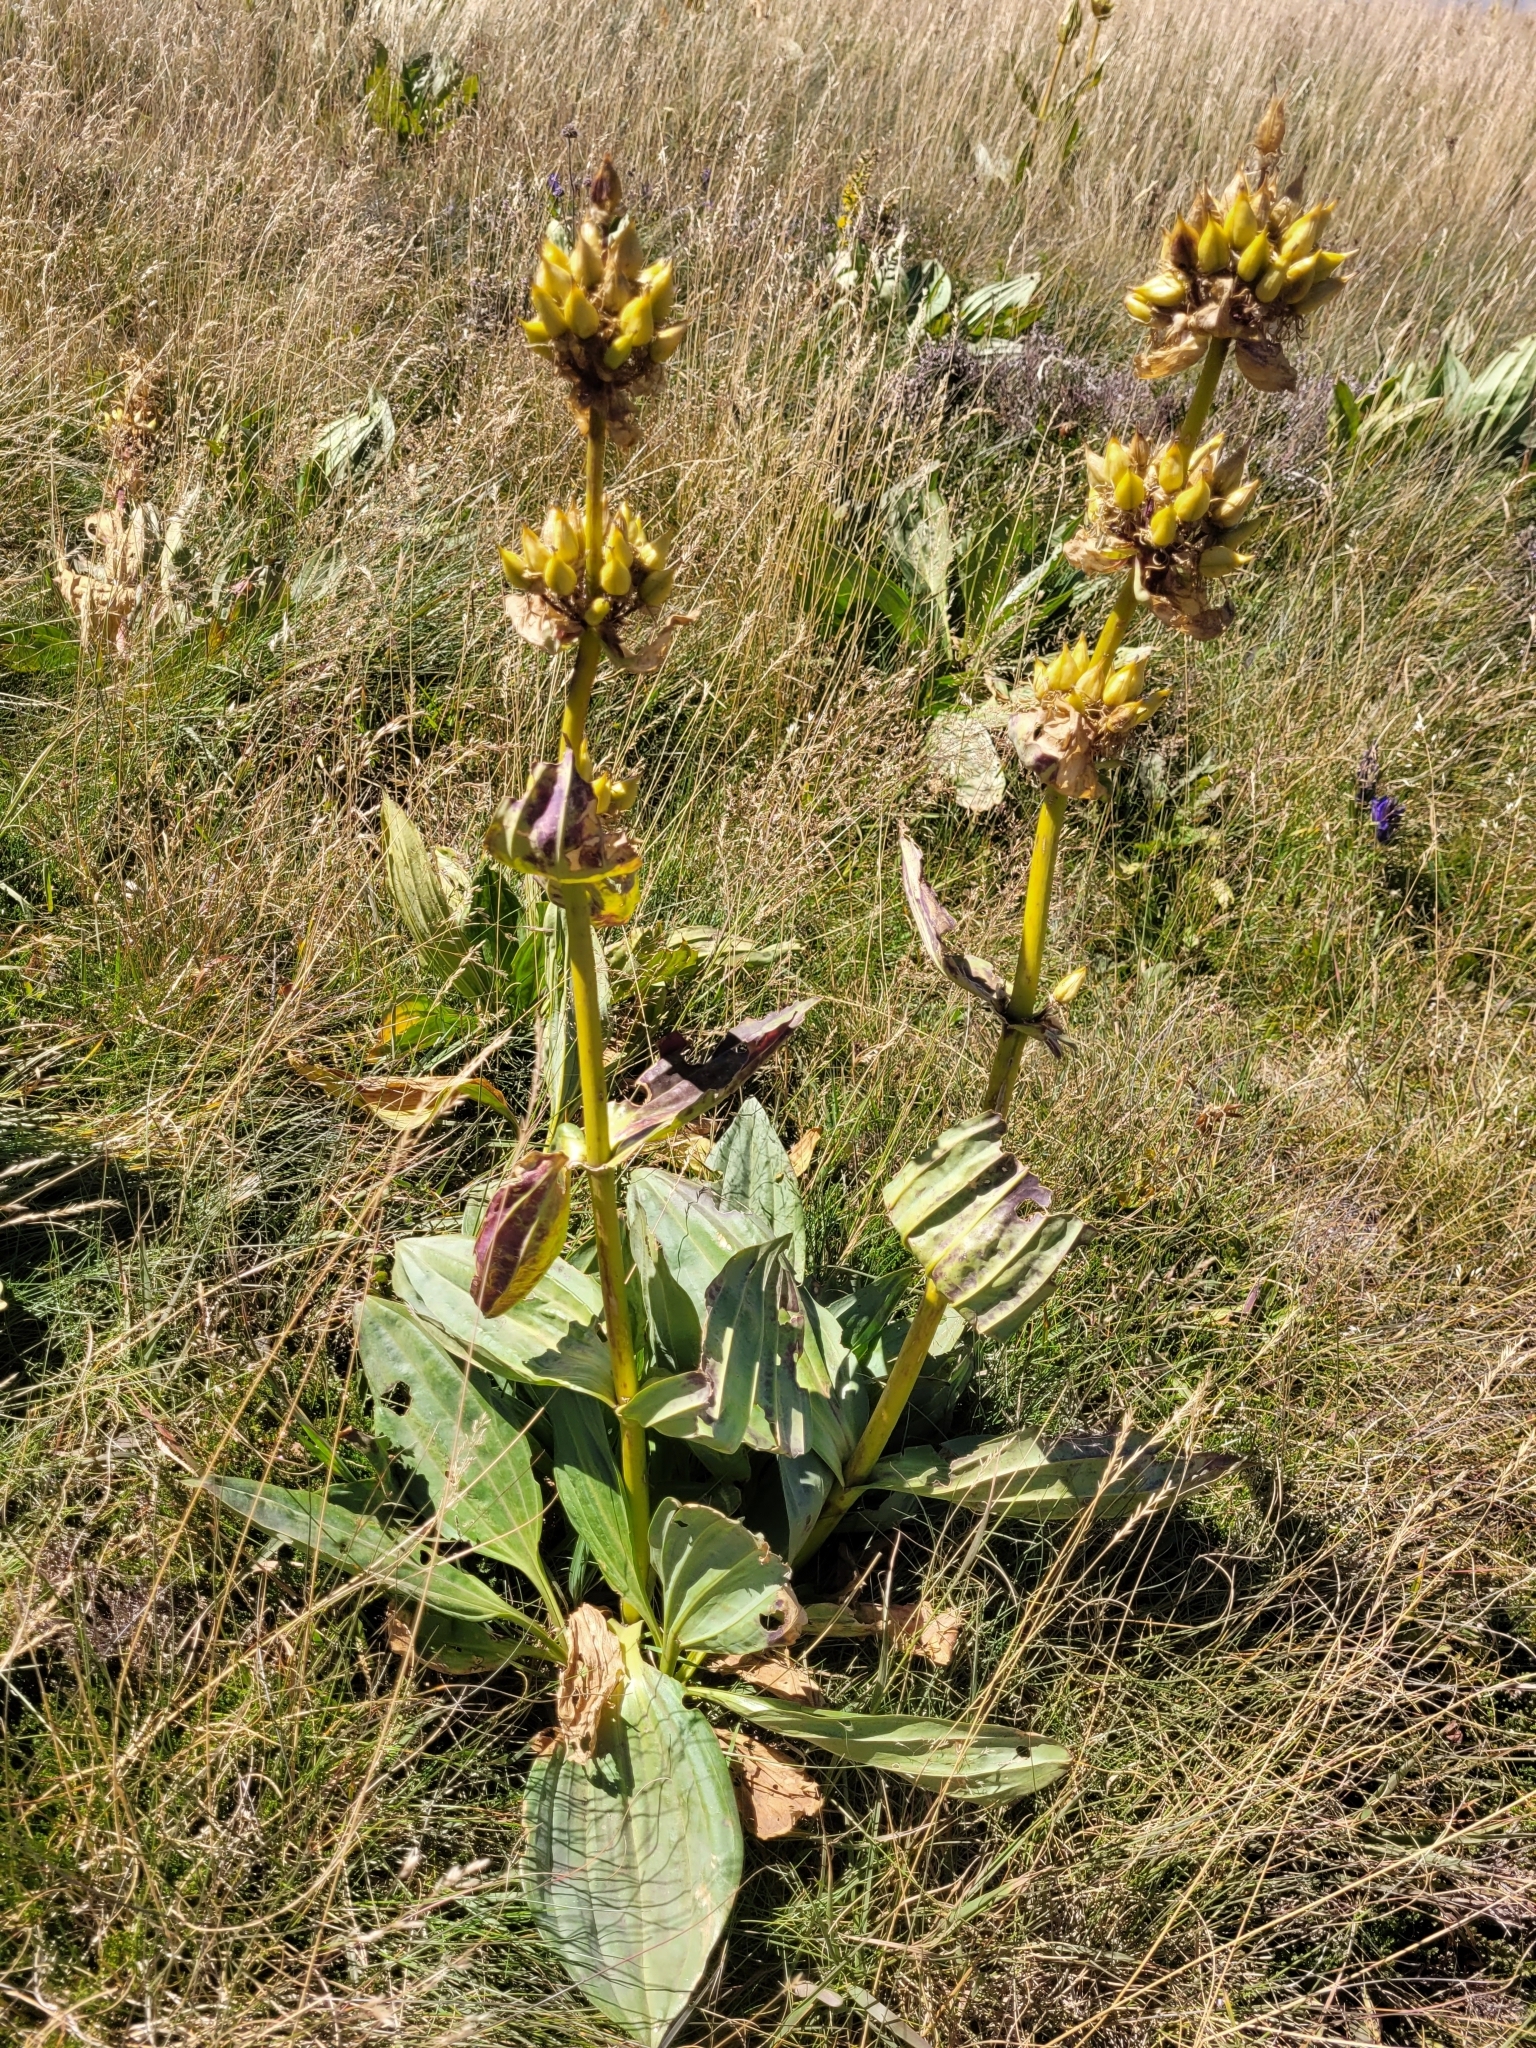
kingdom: Plantae
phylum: Tracheophyta
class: Magnoliopsida
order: Gentianales
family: Gentianaceae
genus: Gentiana
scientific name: Gentiana lutea
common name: Great yellow gentian
